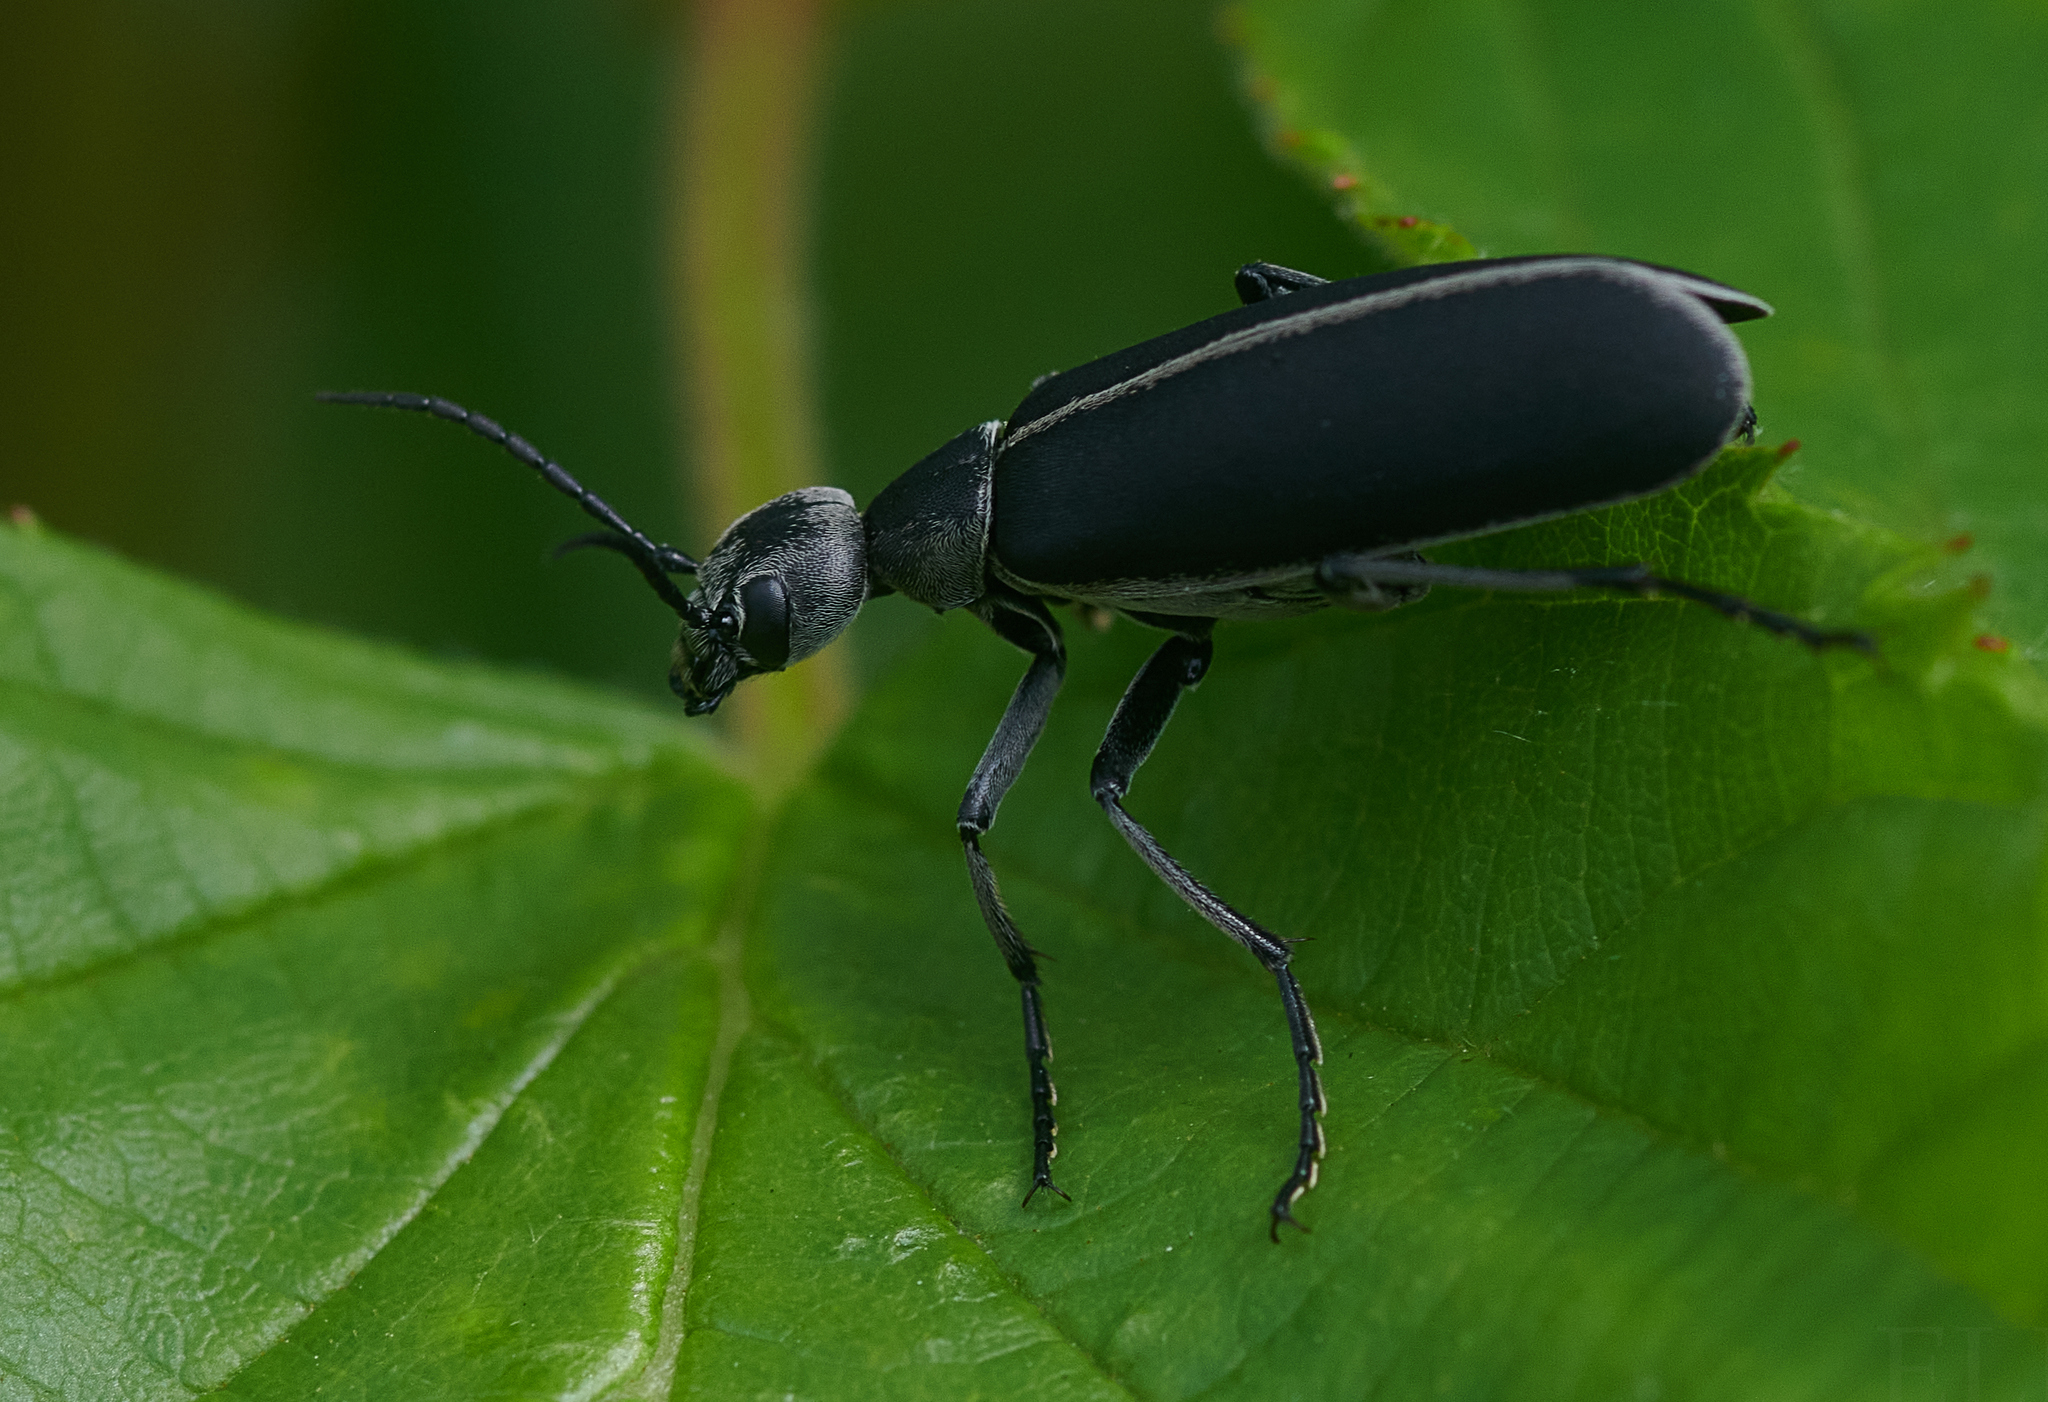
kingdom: Animalia
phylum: Arthropoda
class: Insecta
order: Coleoptera
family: Meloidae
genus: Epicauta
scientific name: Epicauta funebris
